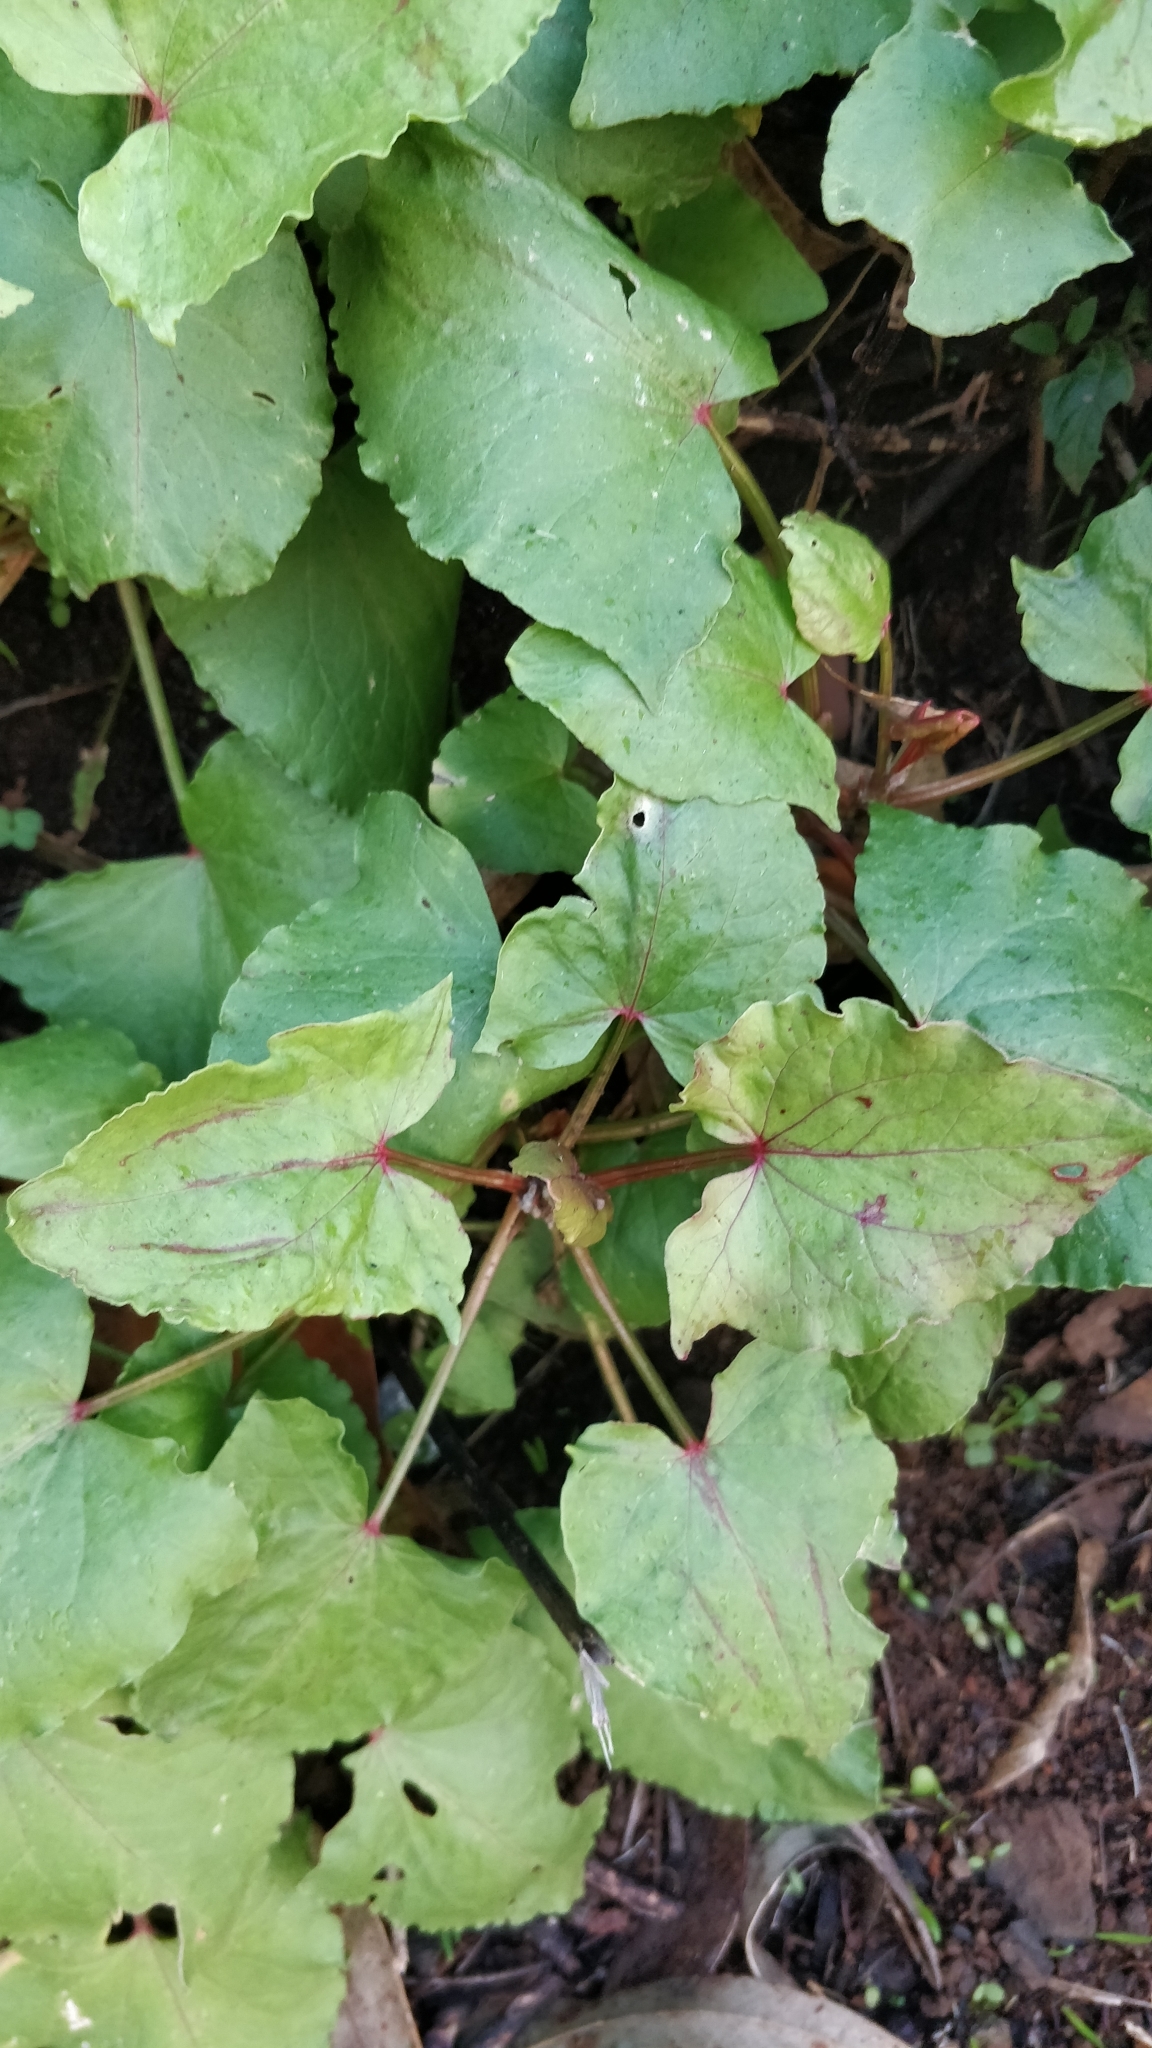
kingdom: Plantae
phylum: Tracheophyta
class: Magnoliopsida
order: Caryophyllales
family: Polygonaceae
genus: Rumex
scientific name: Rumex maderensis
